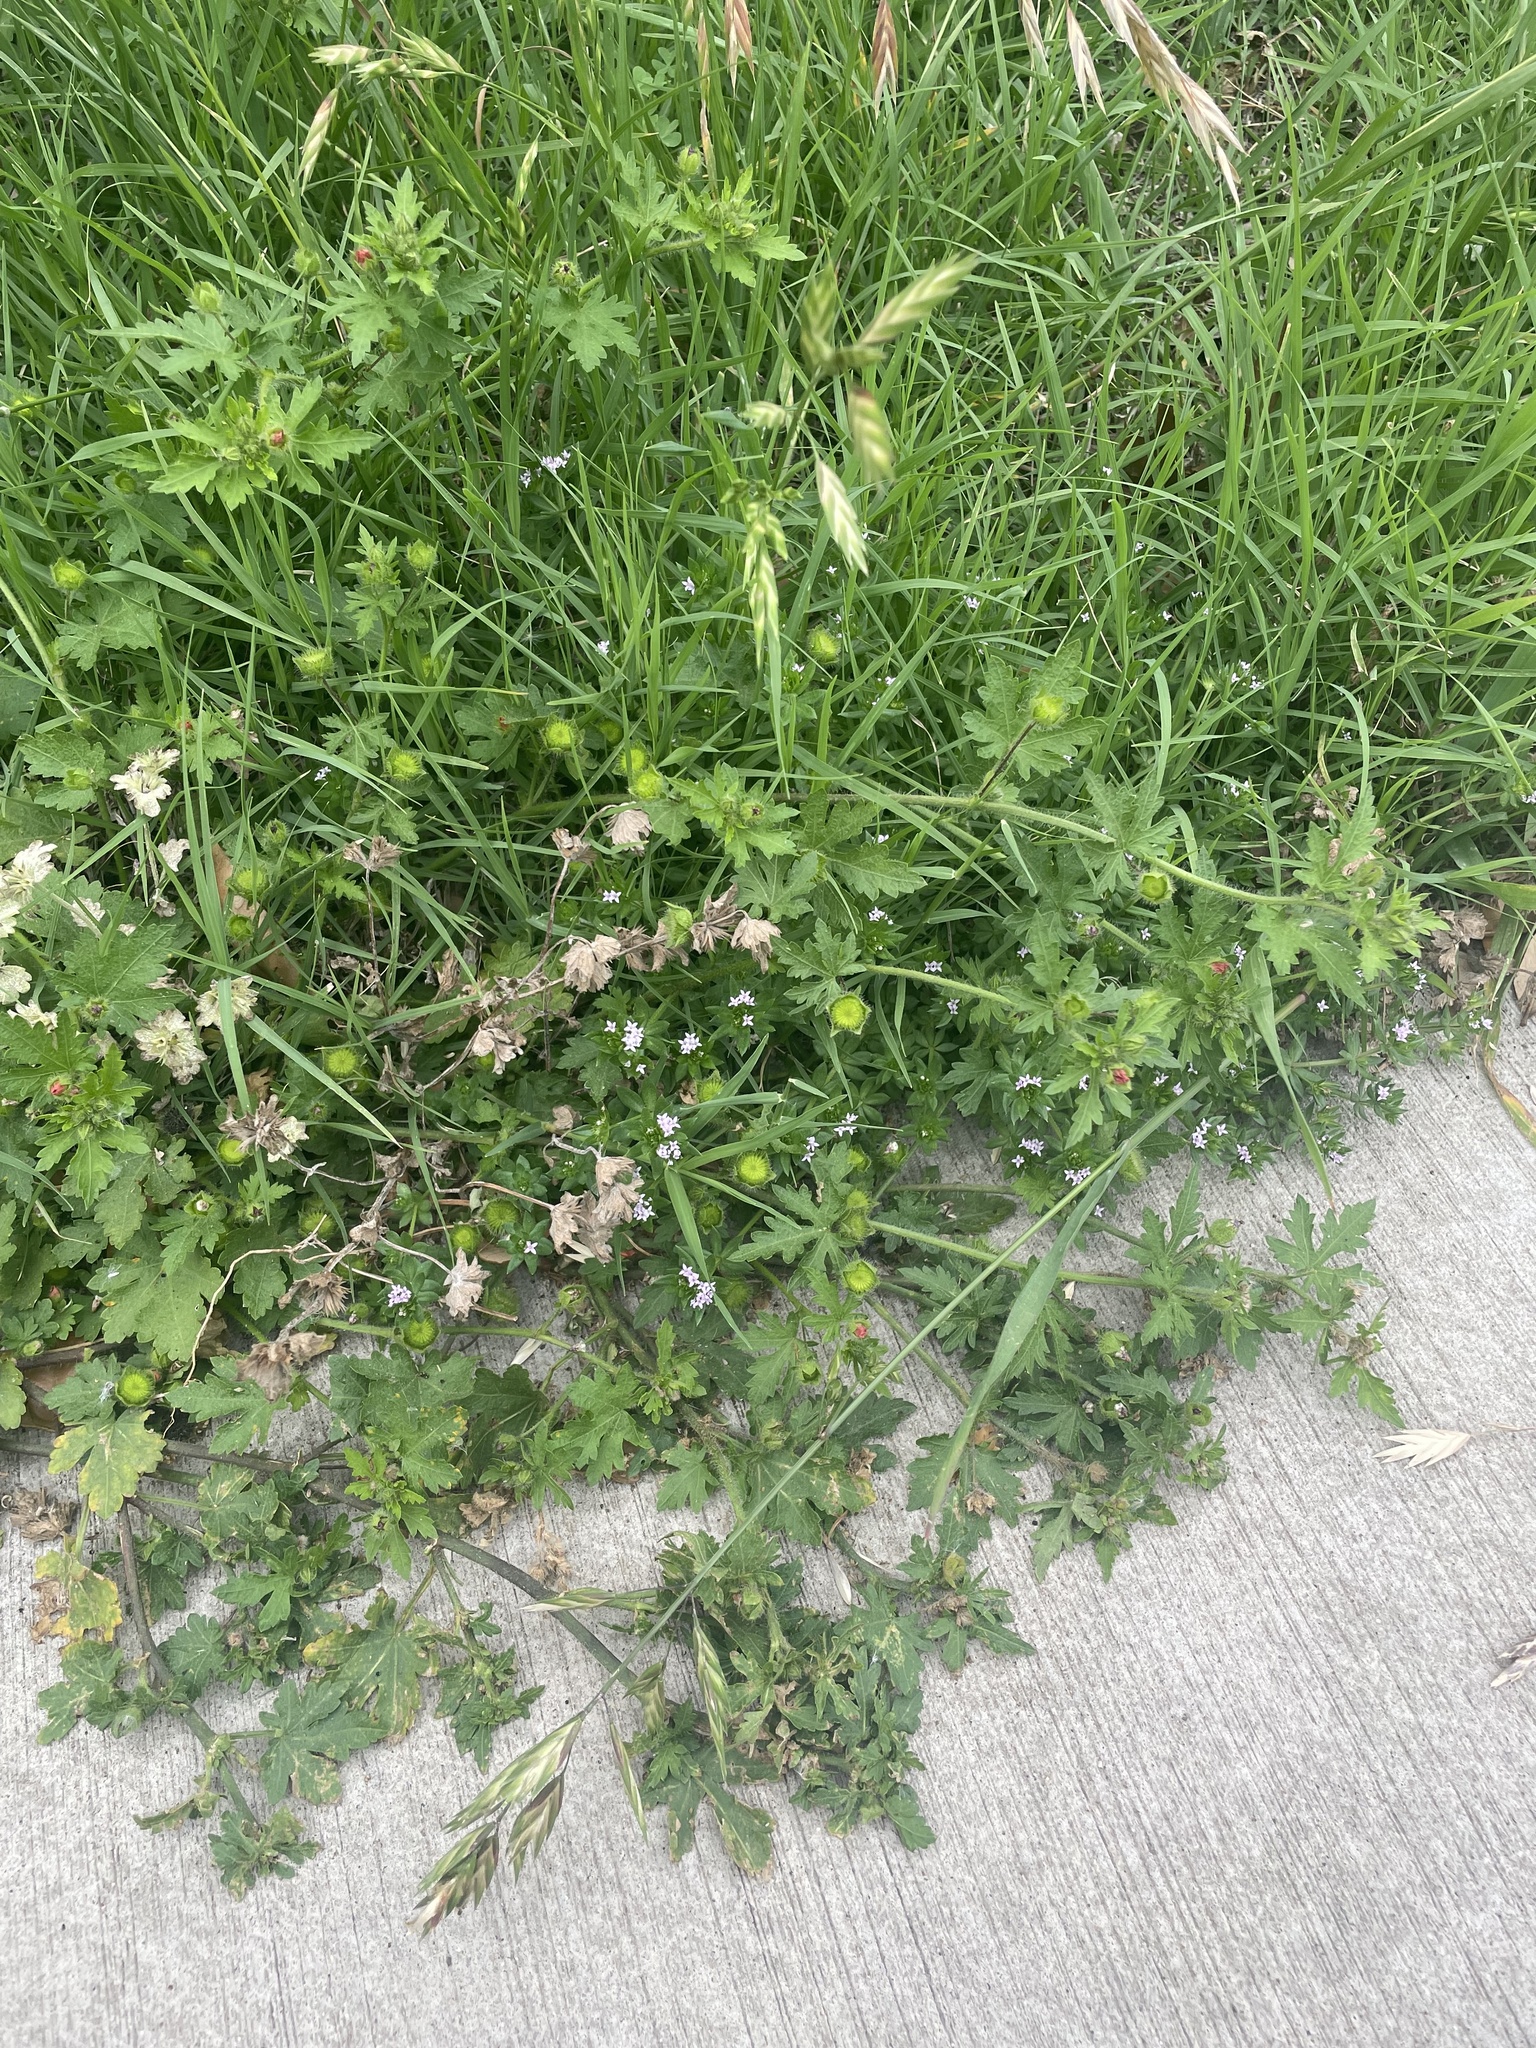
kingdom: Plantae
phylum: Tracheophyta
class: Magnoliopsida
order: Malvales
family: Malvaceae
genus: Modiola
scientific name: Modiola caroliniana
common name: Carolina bristlemallow
